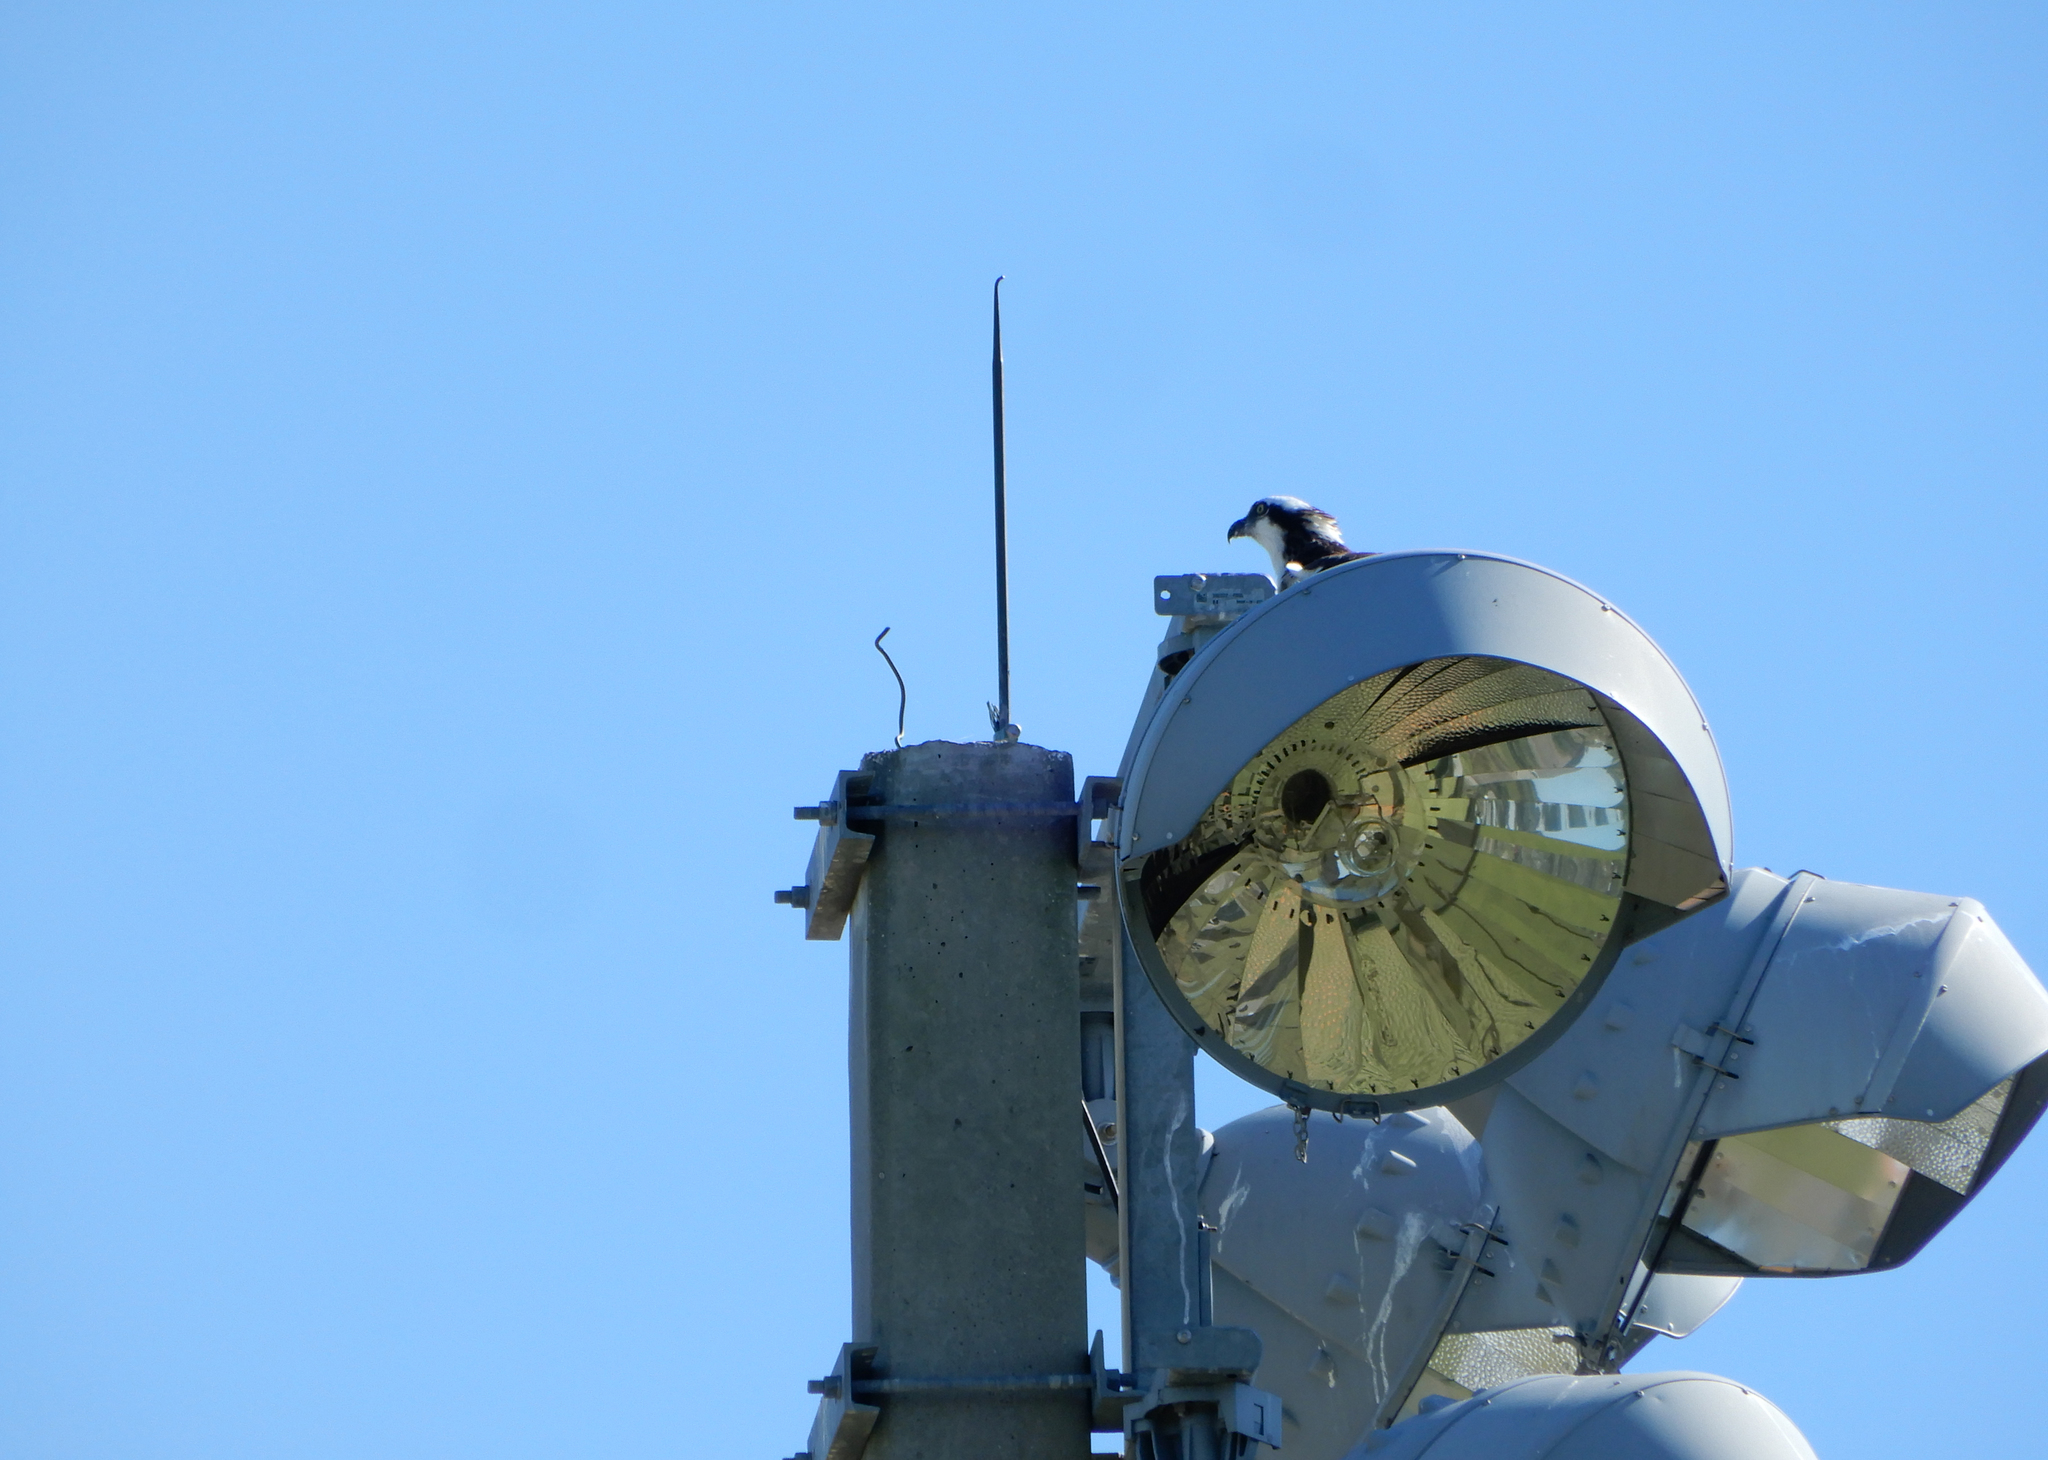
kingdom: Animalia
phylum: Chordata
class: Aves
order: Accipitriformes
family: Pandionidae
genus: Pandion
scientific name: Pandion haliaetus
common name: Osprey
